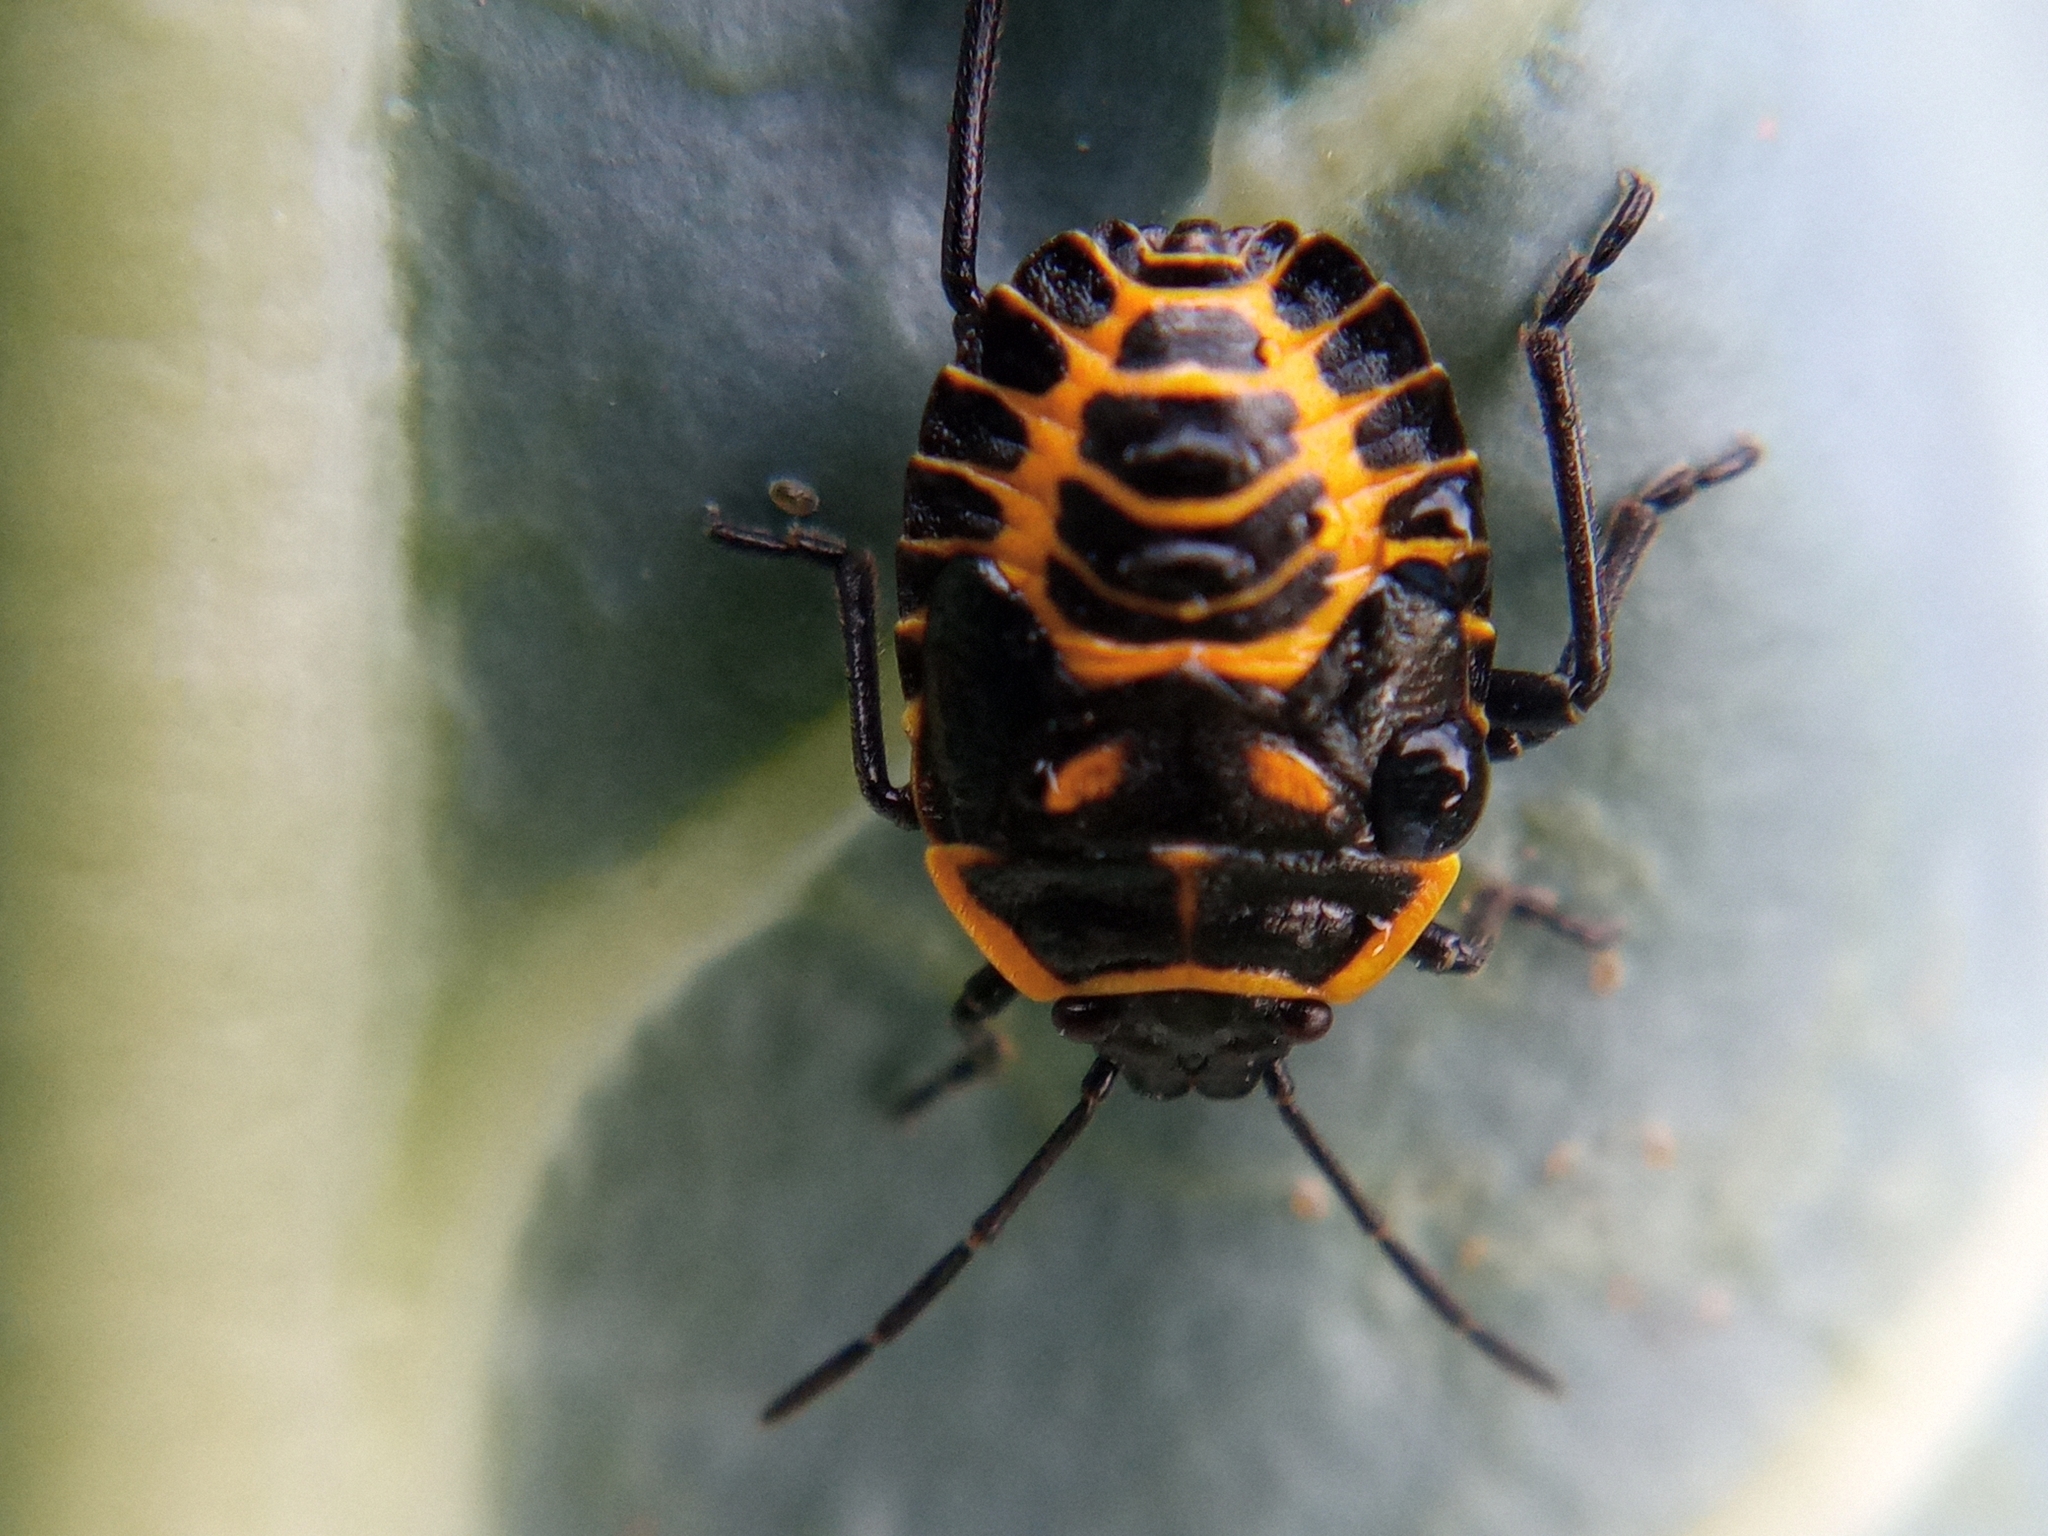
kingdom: Animalia
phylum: Arthropoda
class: Insecta
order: Hemiptera
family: Pentatomidae
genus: Eurydema
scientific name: Eurydema ventralis
